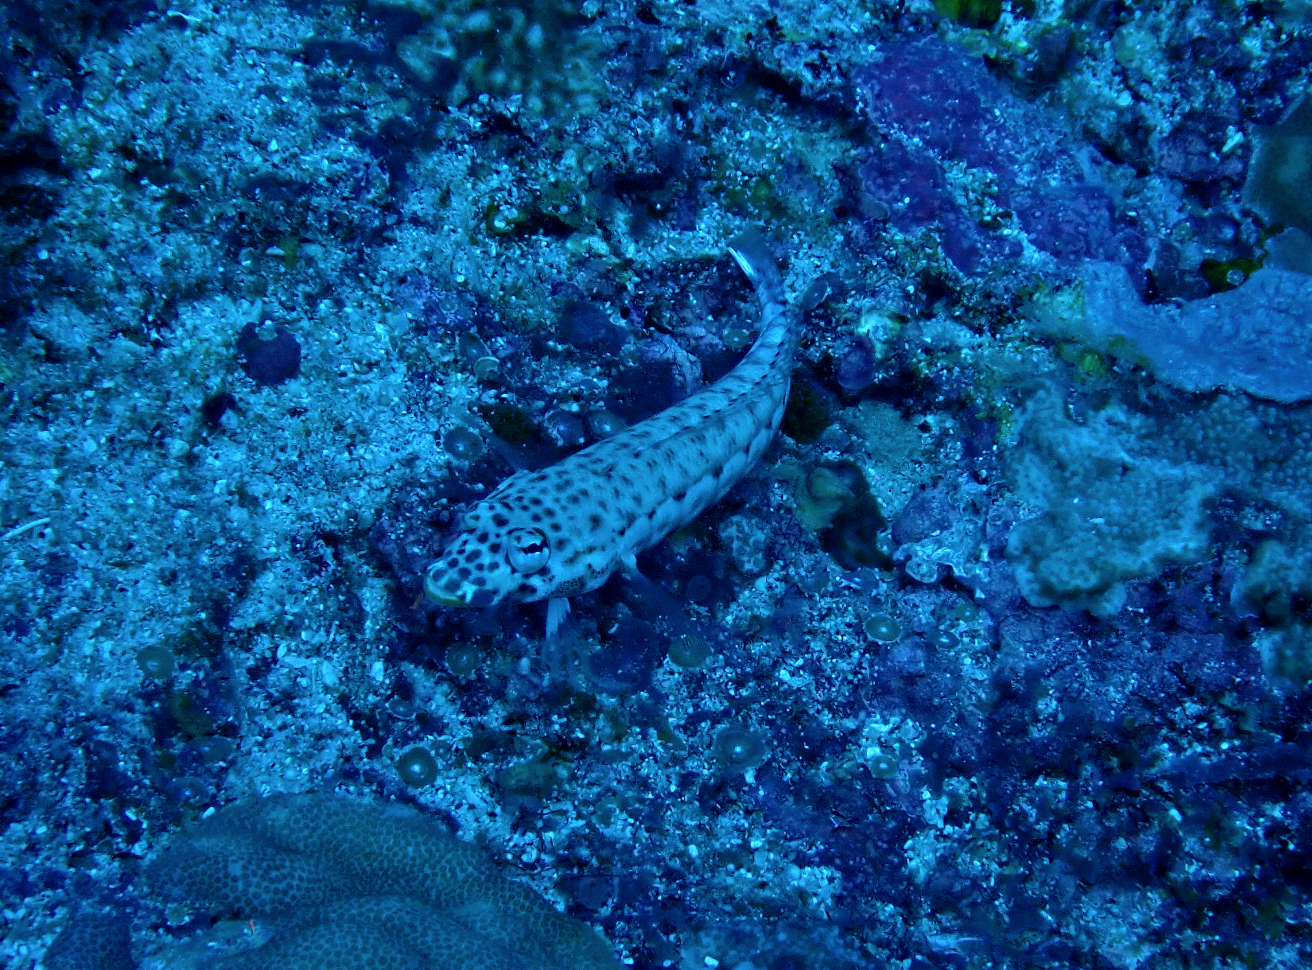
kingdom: Animalia
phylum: Chordata
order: Perciformes
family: Pinguipedidae
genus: Parapercis
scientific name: Parapercis clathrata
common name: Latticed sandperch
